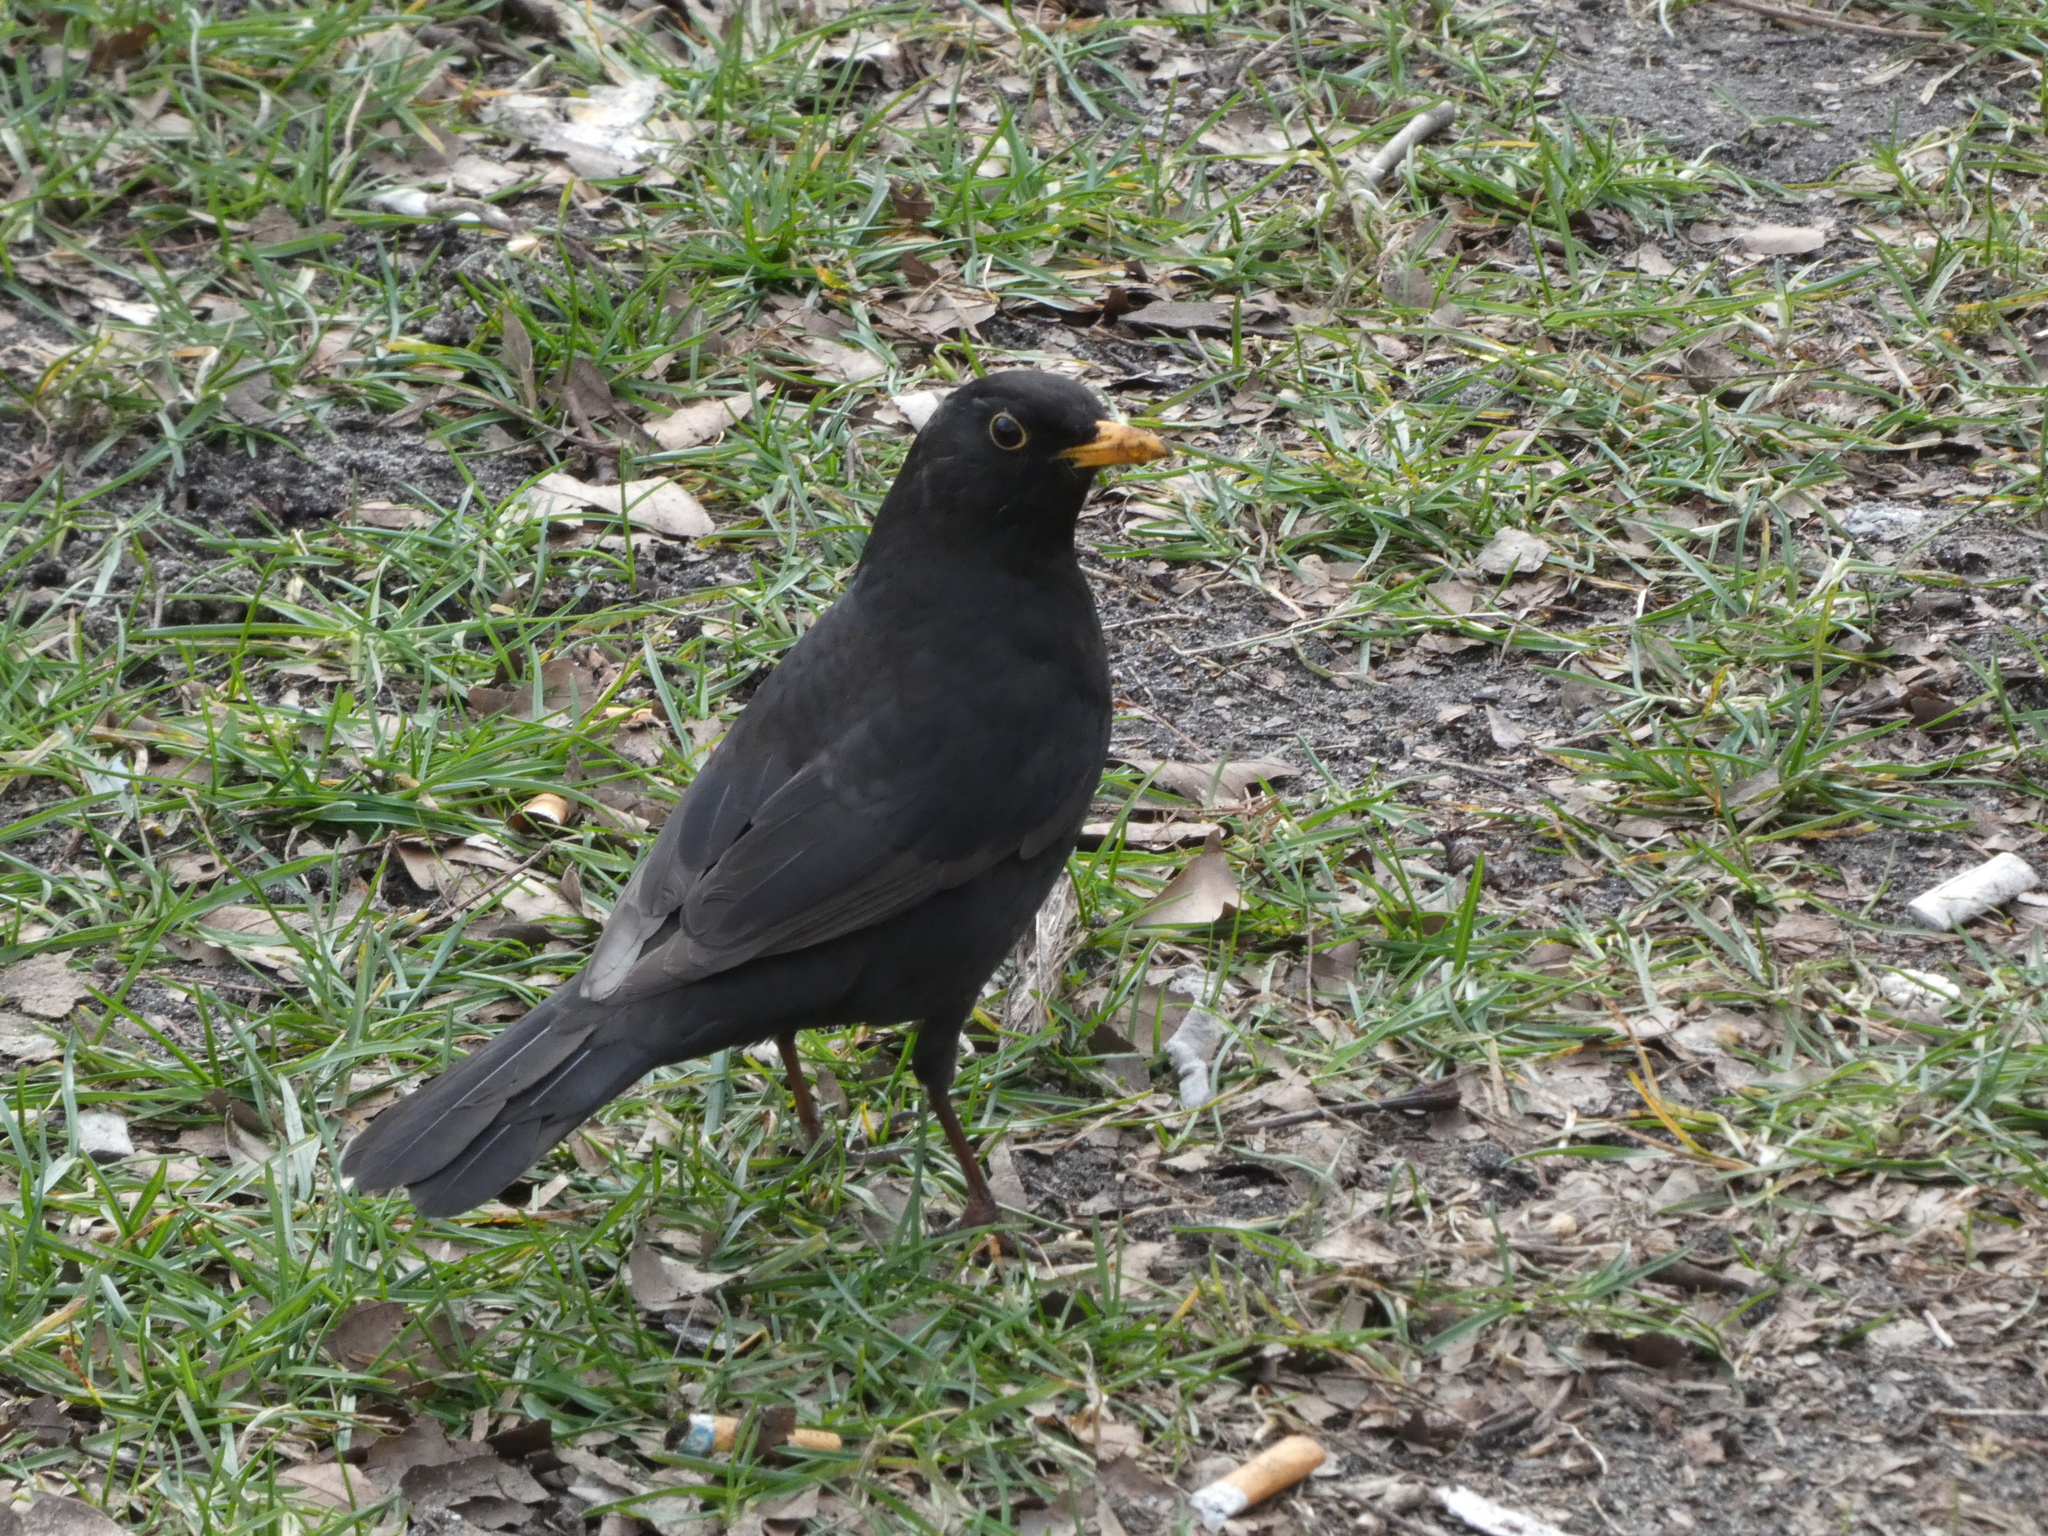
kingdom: Animalia
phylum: Chordata
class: Aves
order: Passeriformes
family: Turdidae
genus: Turdus
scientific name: Turdus merula
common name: Common blackbird
